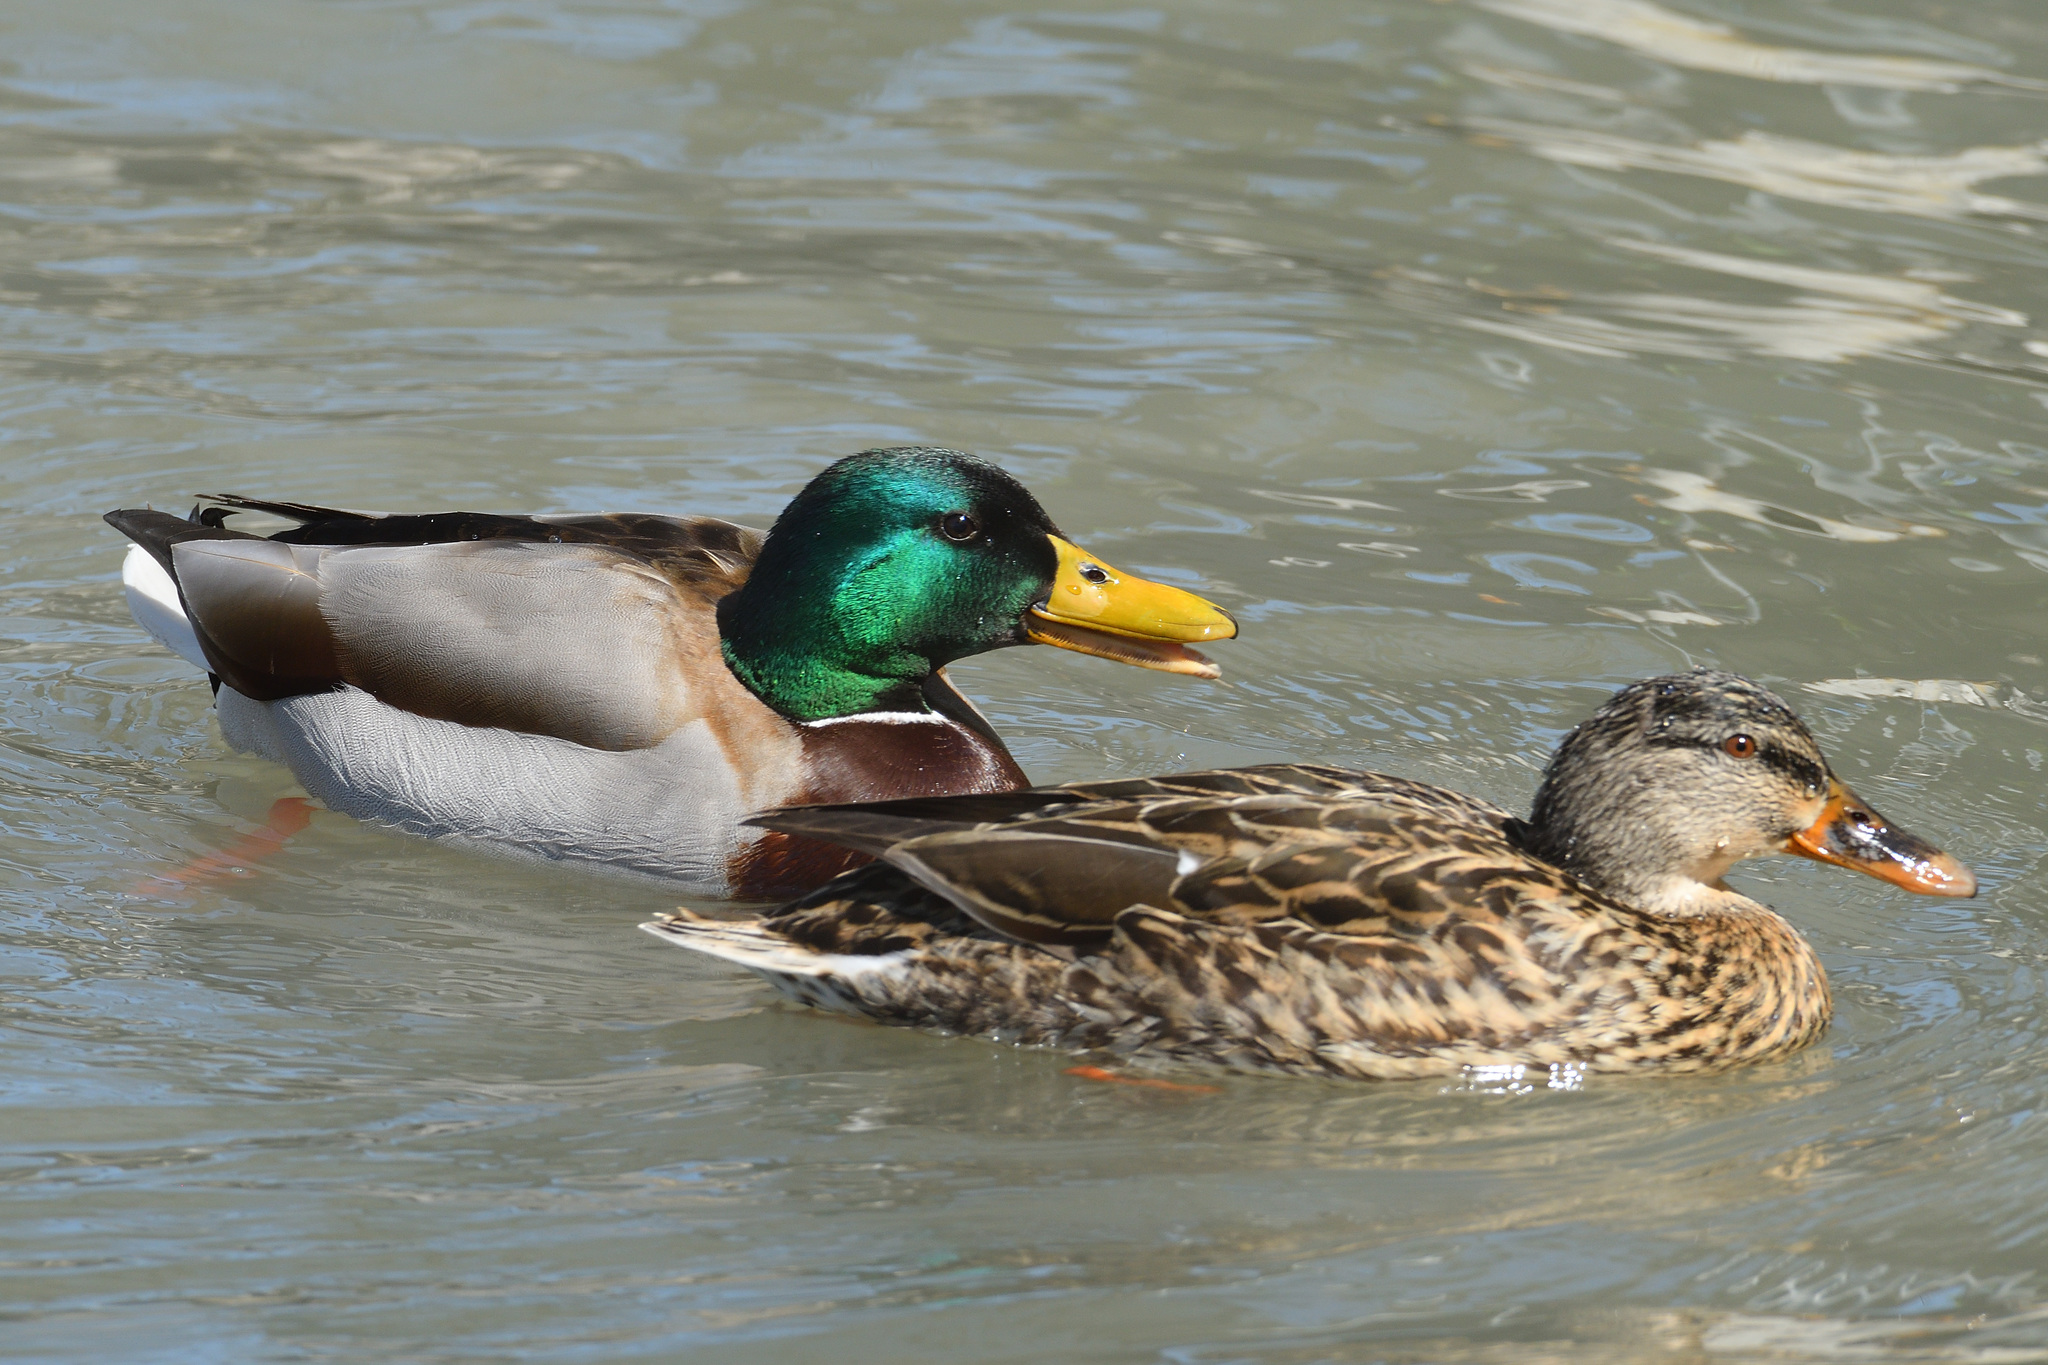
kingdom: Animalia
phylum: Chordata
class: Aves
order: Anseriformes
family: Anatidae
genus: Anas
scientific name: Anas platyrhynchos
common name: Mallard
